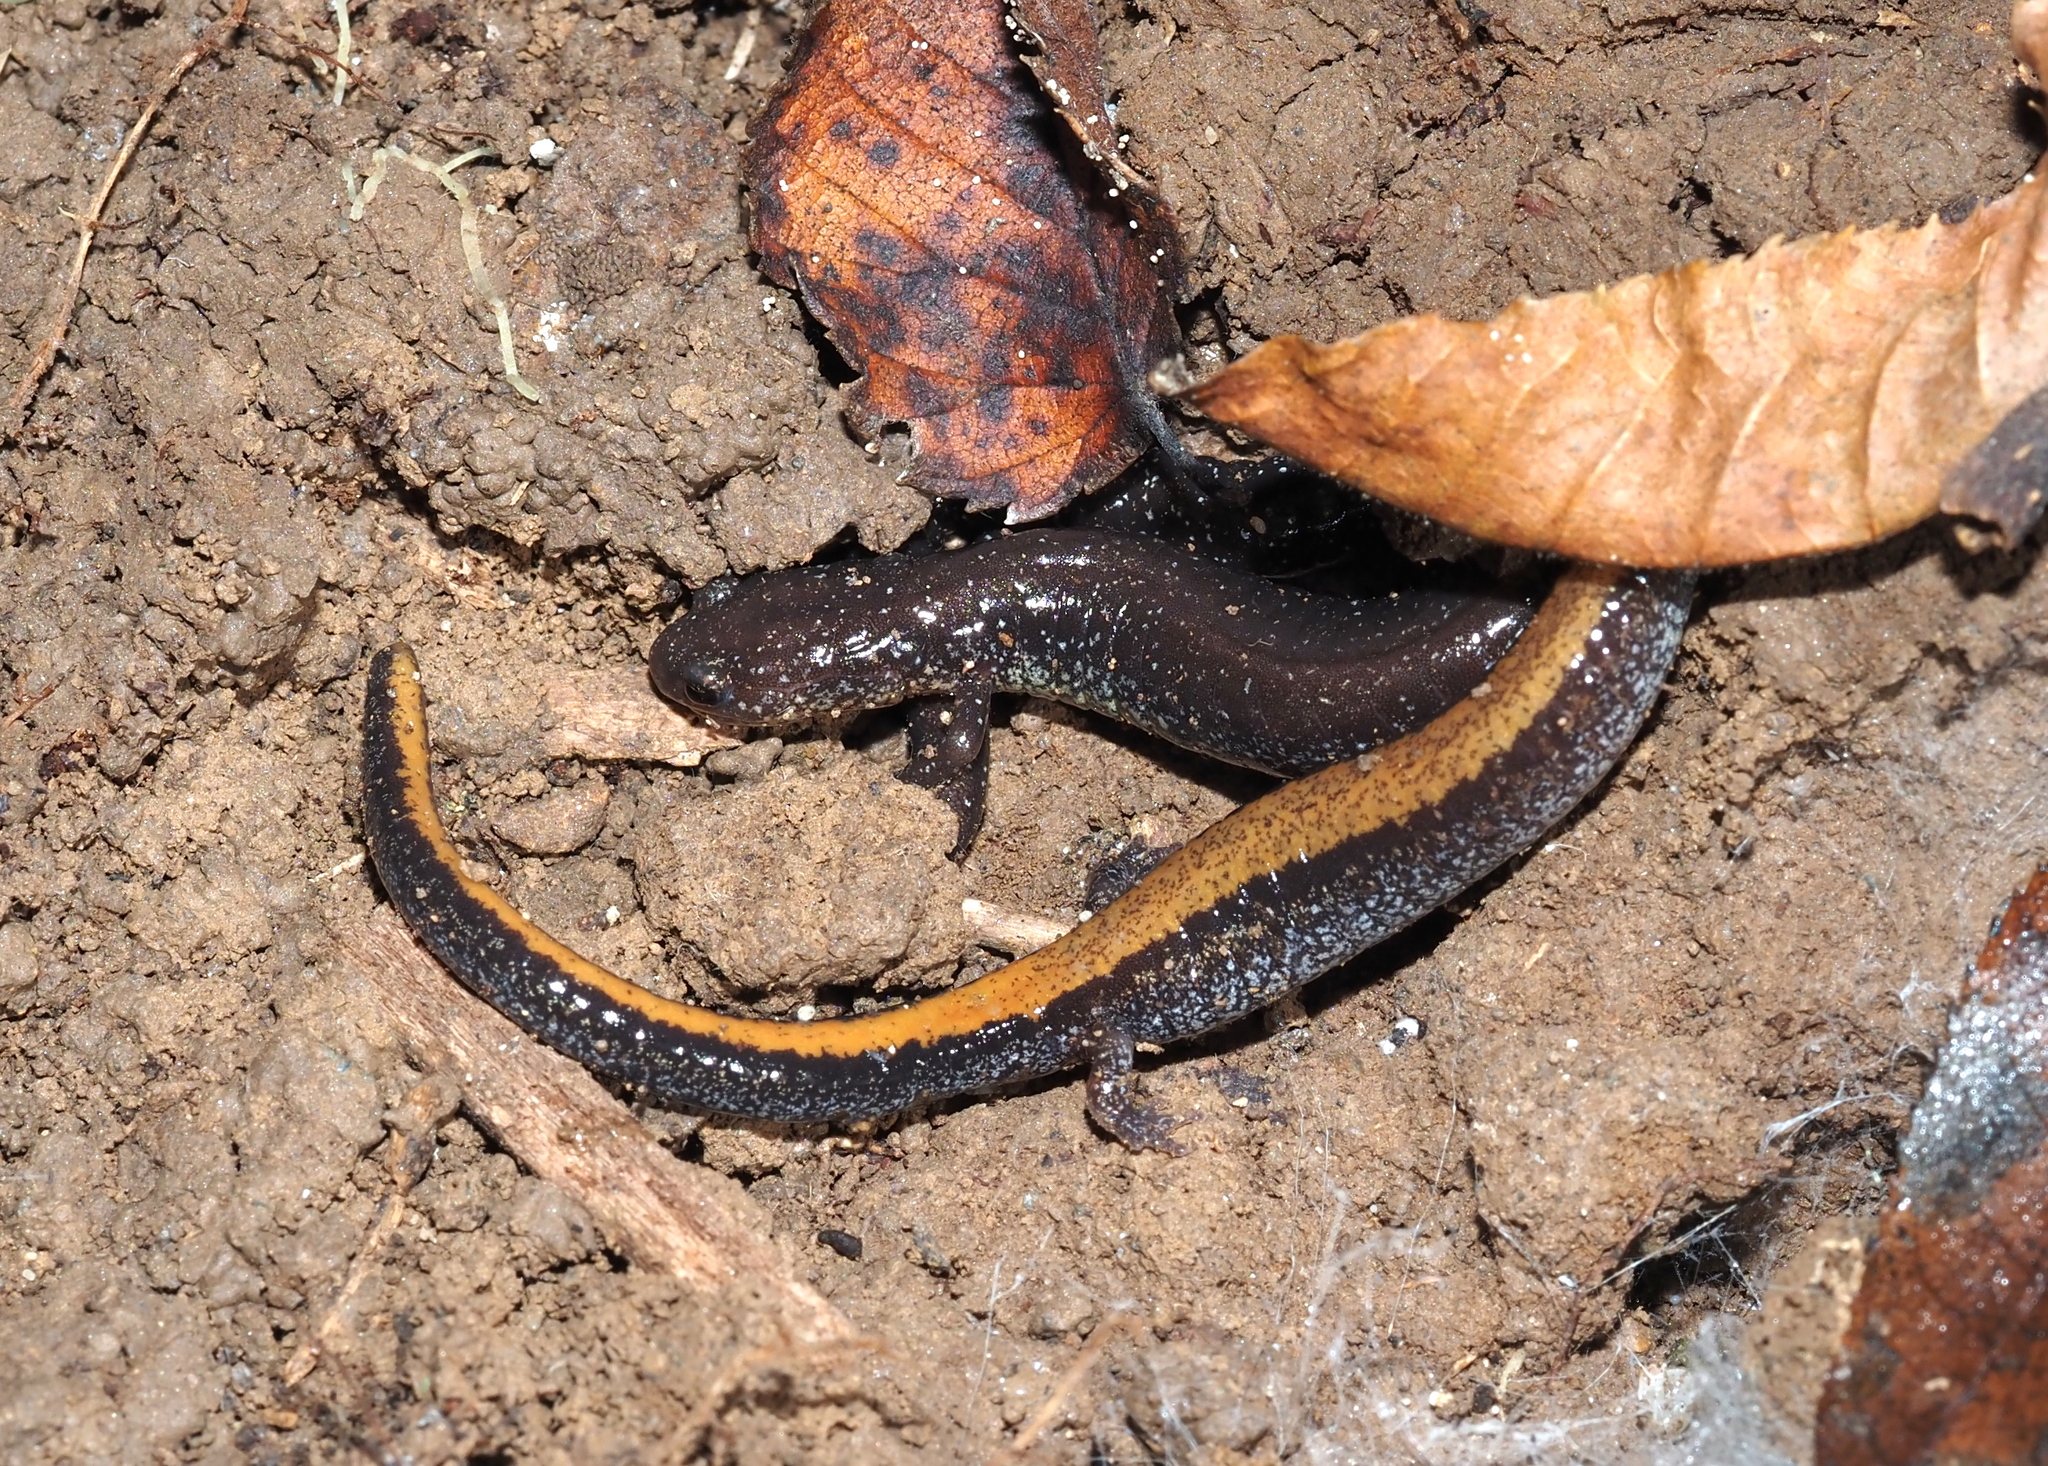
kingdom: Animalia
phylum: Chordata
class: Amphibia
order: Caudata
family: Plethodontidae
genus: Plethodon
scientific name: Plethodon cinereus
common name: Redback salamander
